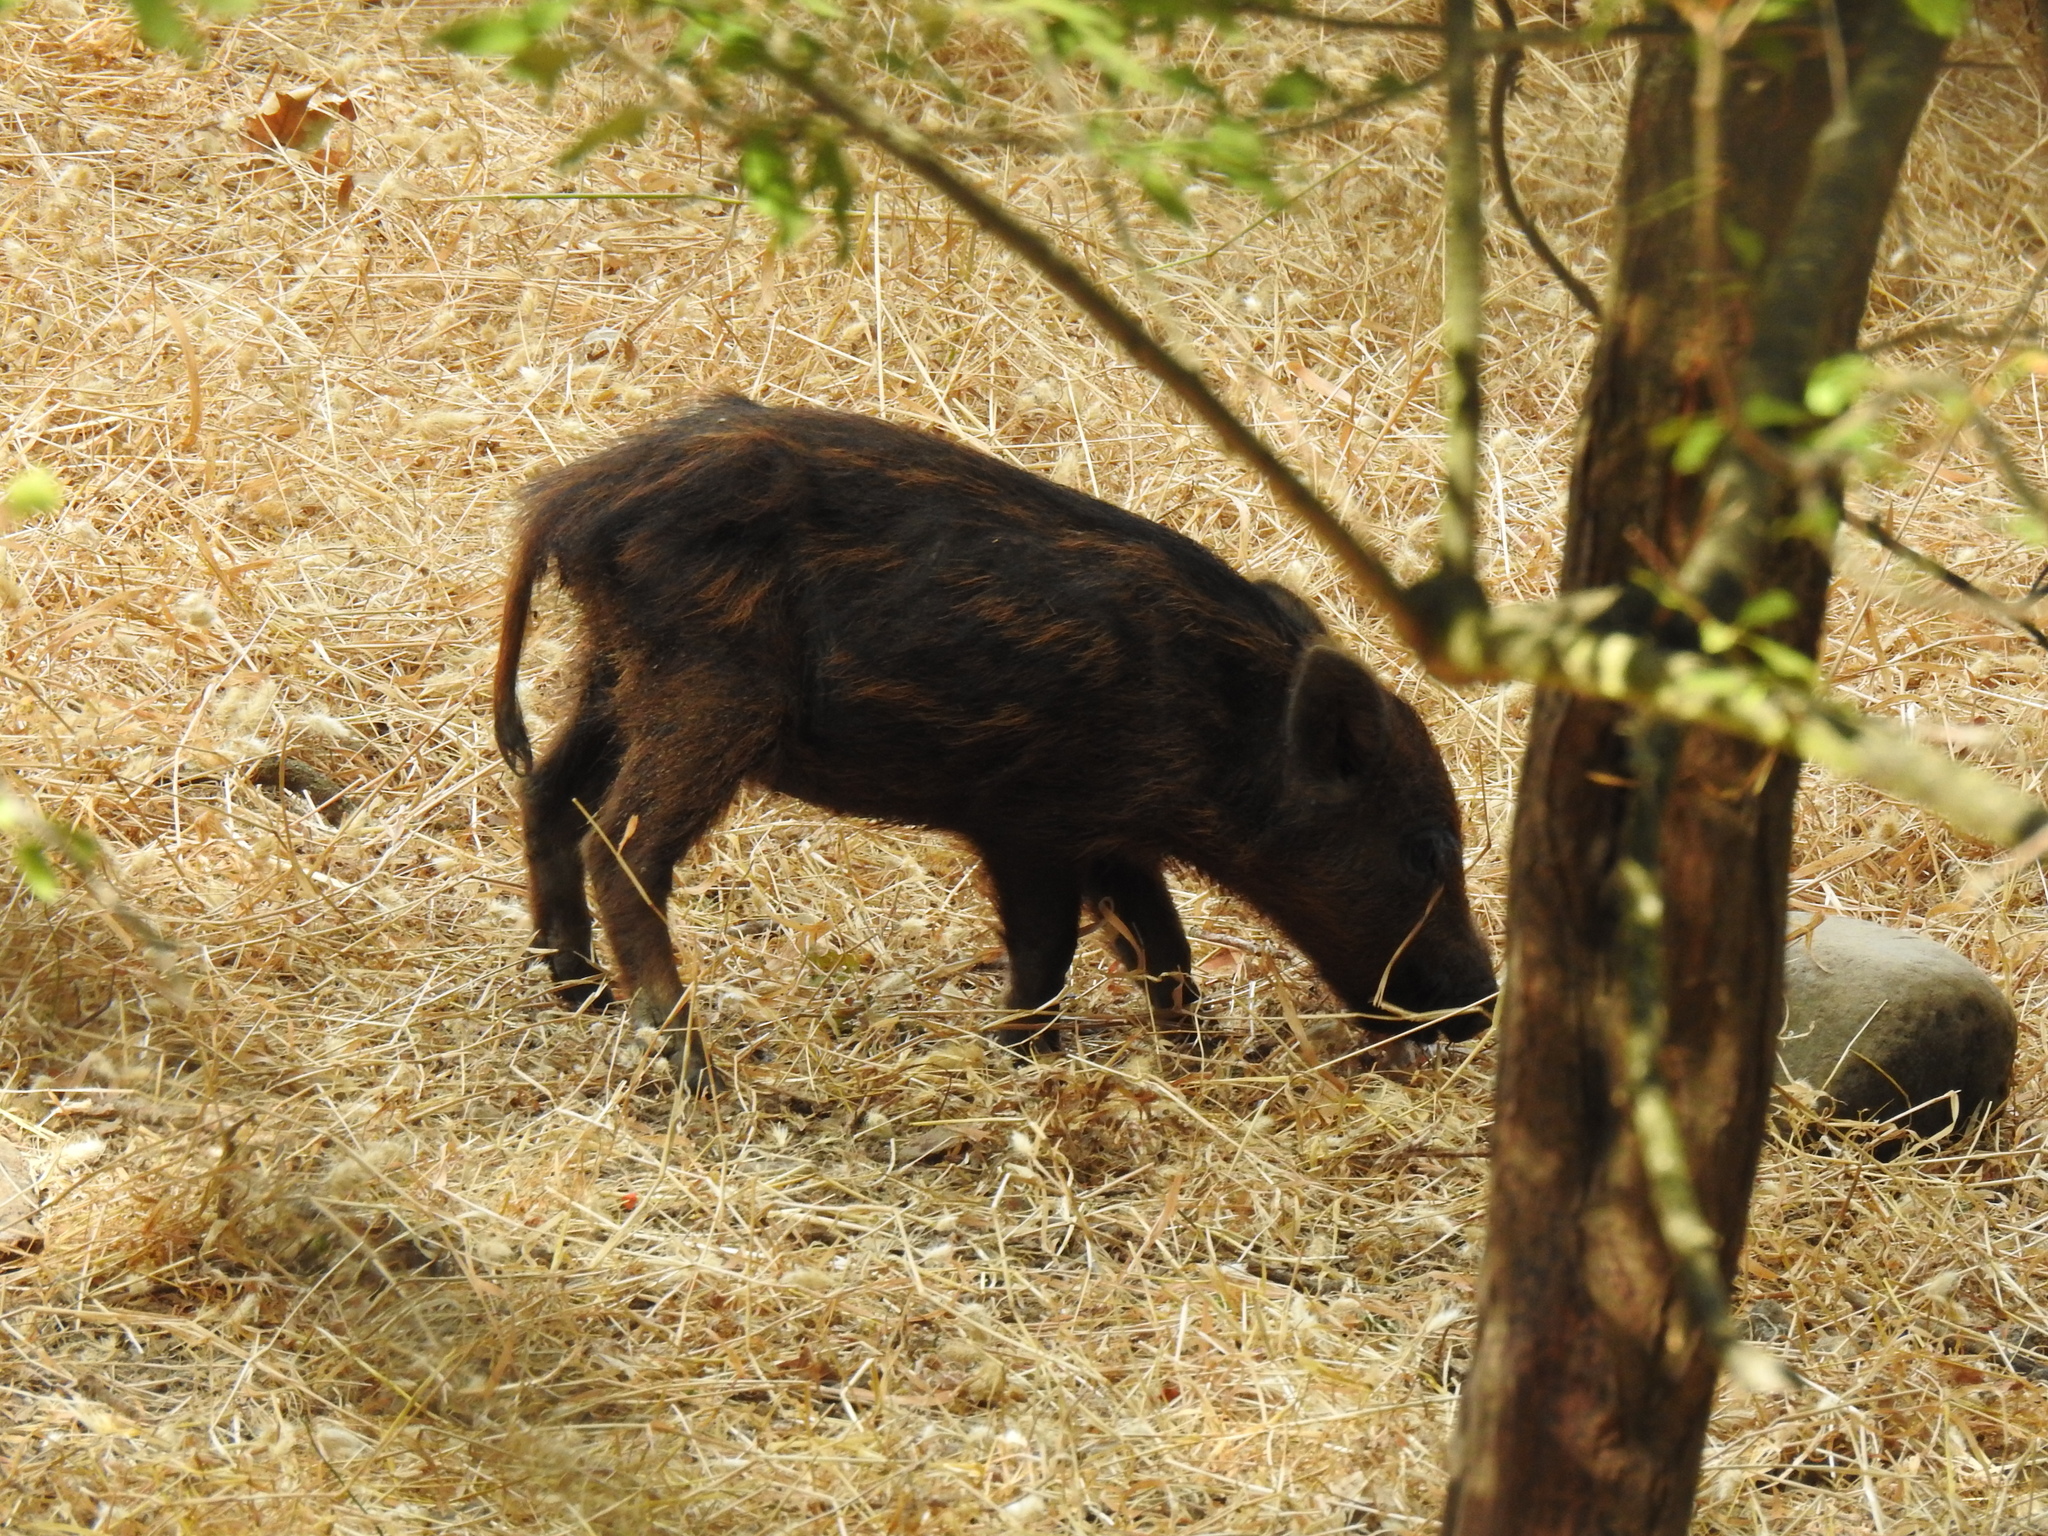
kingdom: Animalia
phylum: Chordata
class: Mammalia
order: Artiodactyla
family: Suidae
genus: Sus
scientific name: Sus scrofa
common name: Wild boar
